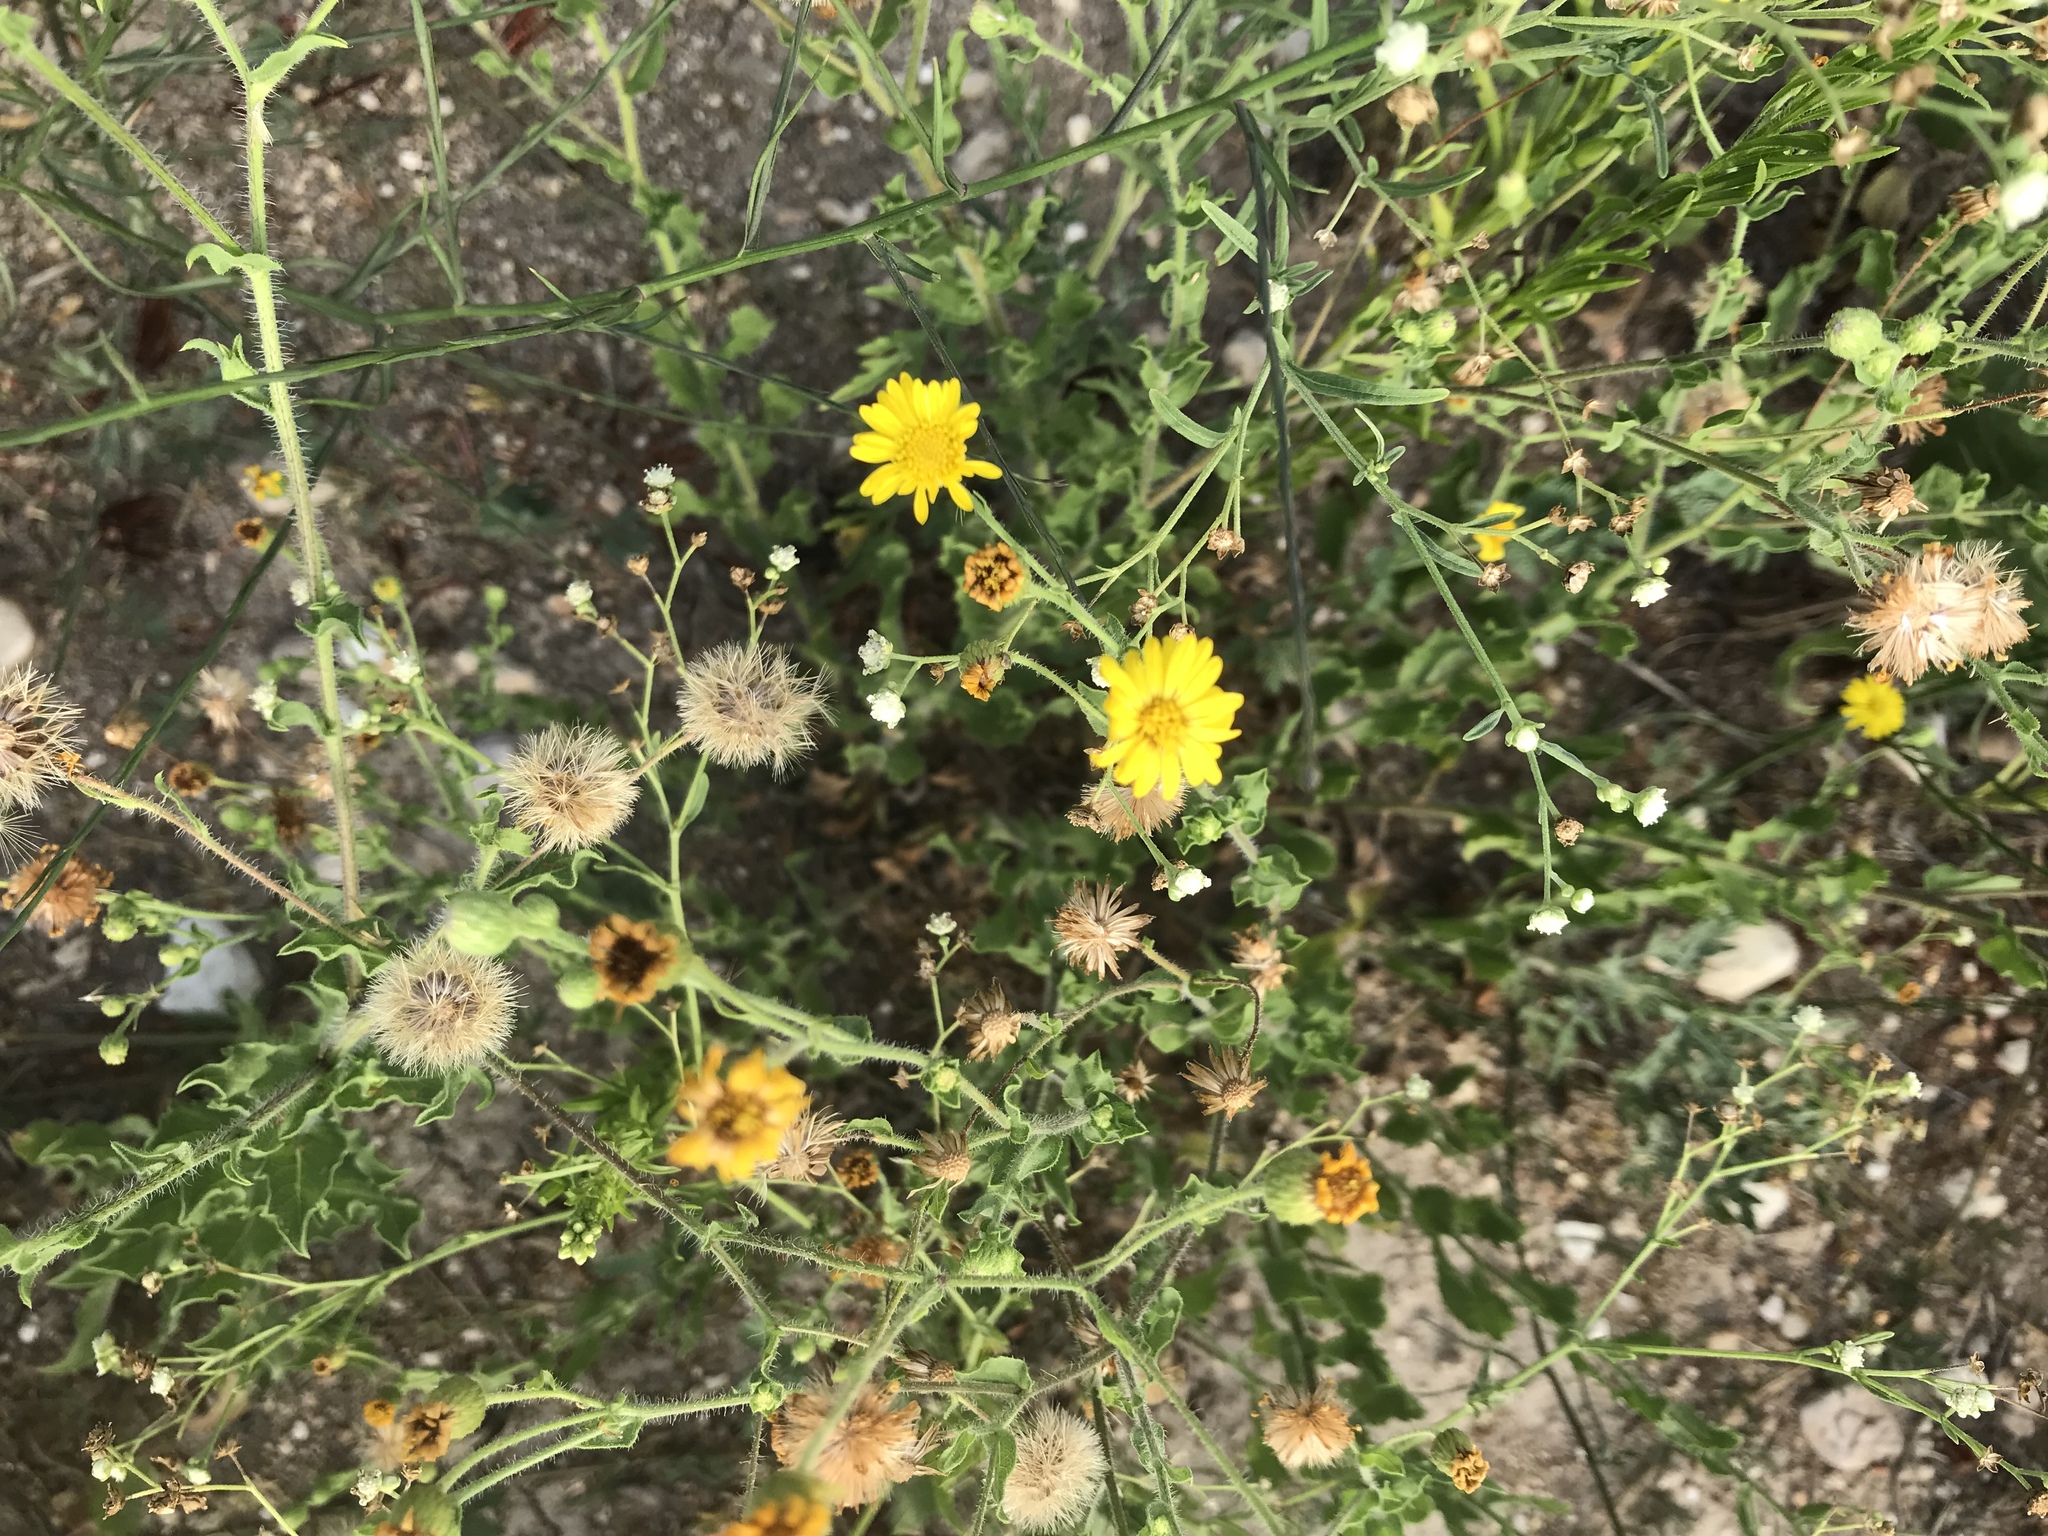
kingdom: Plantae
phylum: Tracheophyta
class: Magnoliopsida
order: Asterales
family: Asteraceae
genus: Heterotheca
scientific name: Heterotheca subaxillaris
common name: Camphorweed
